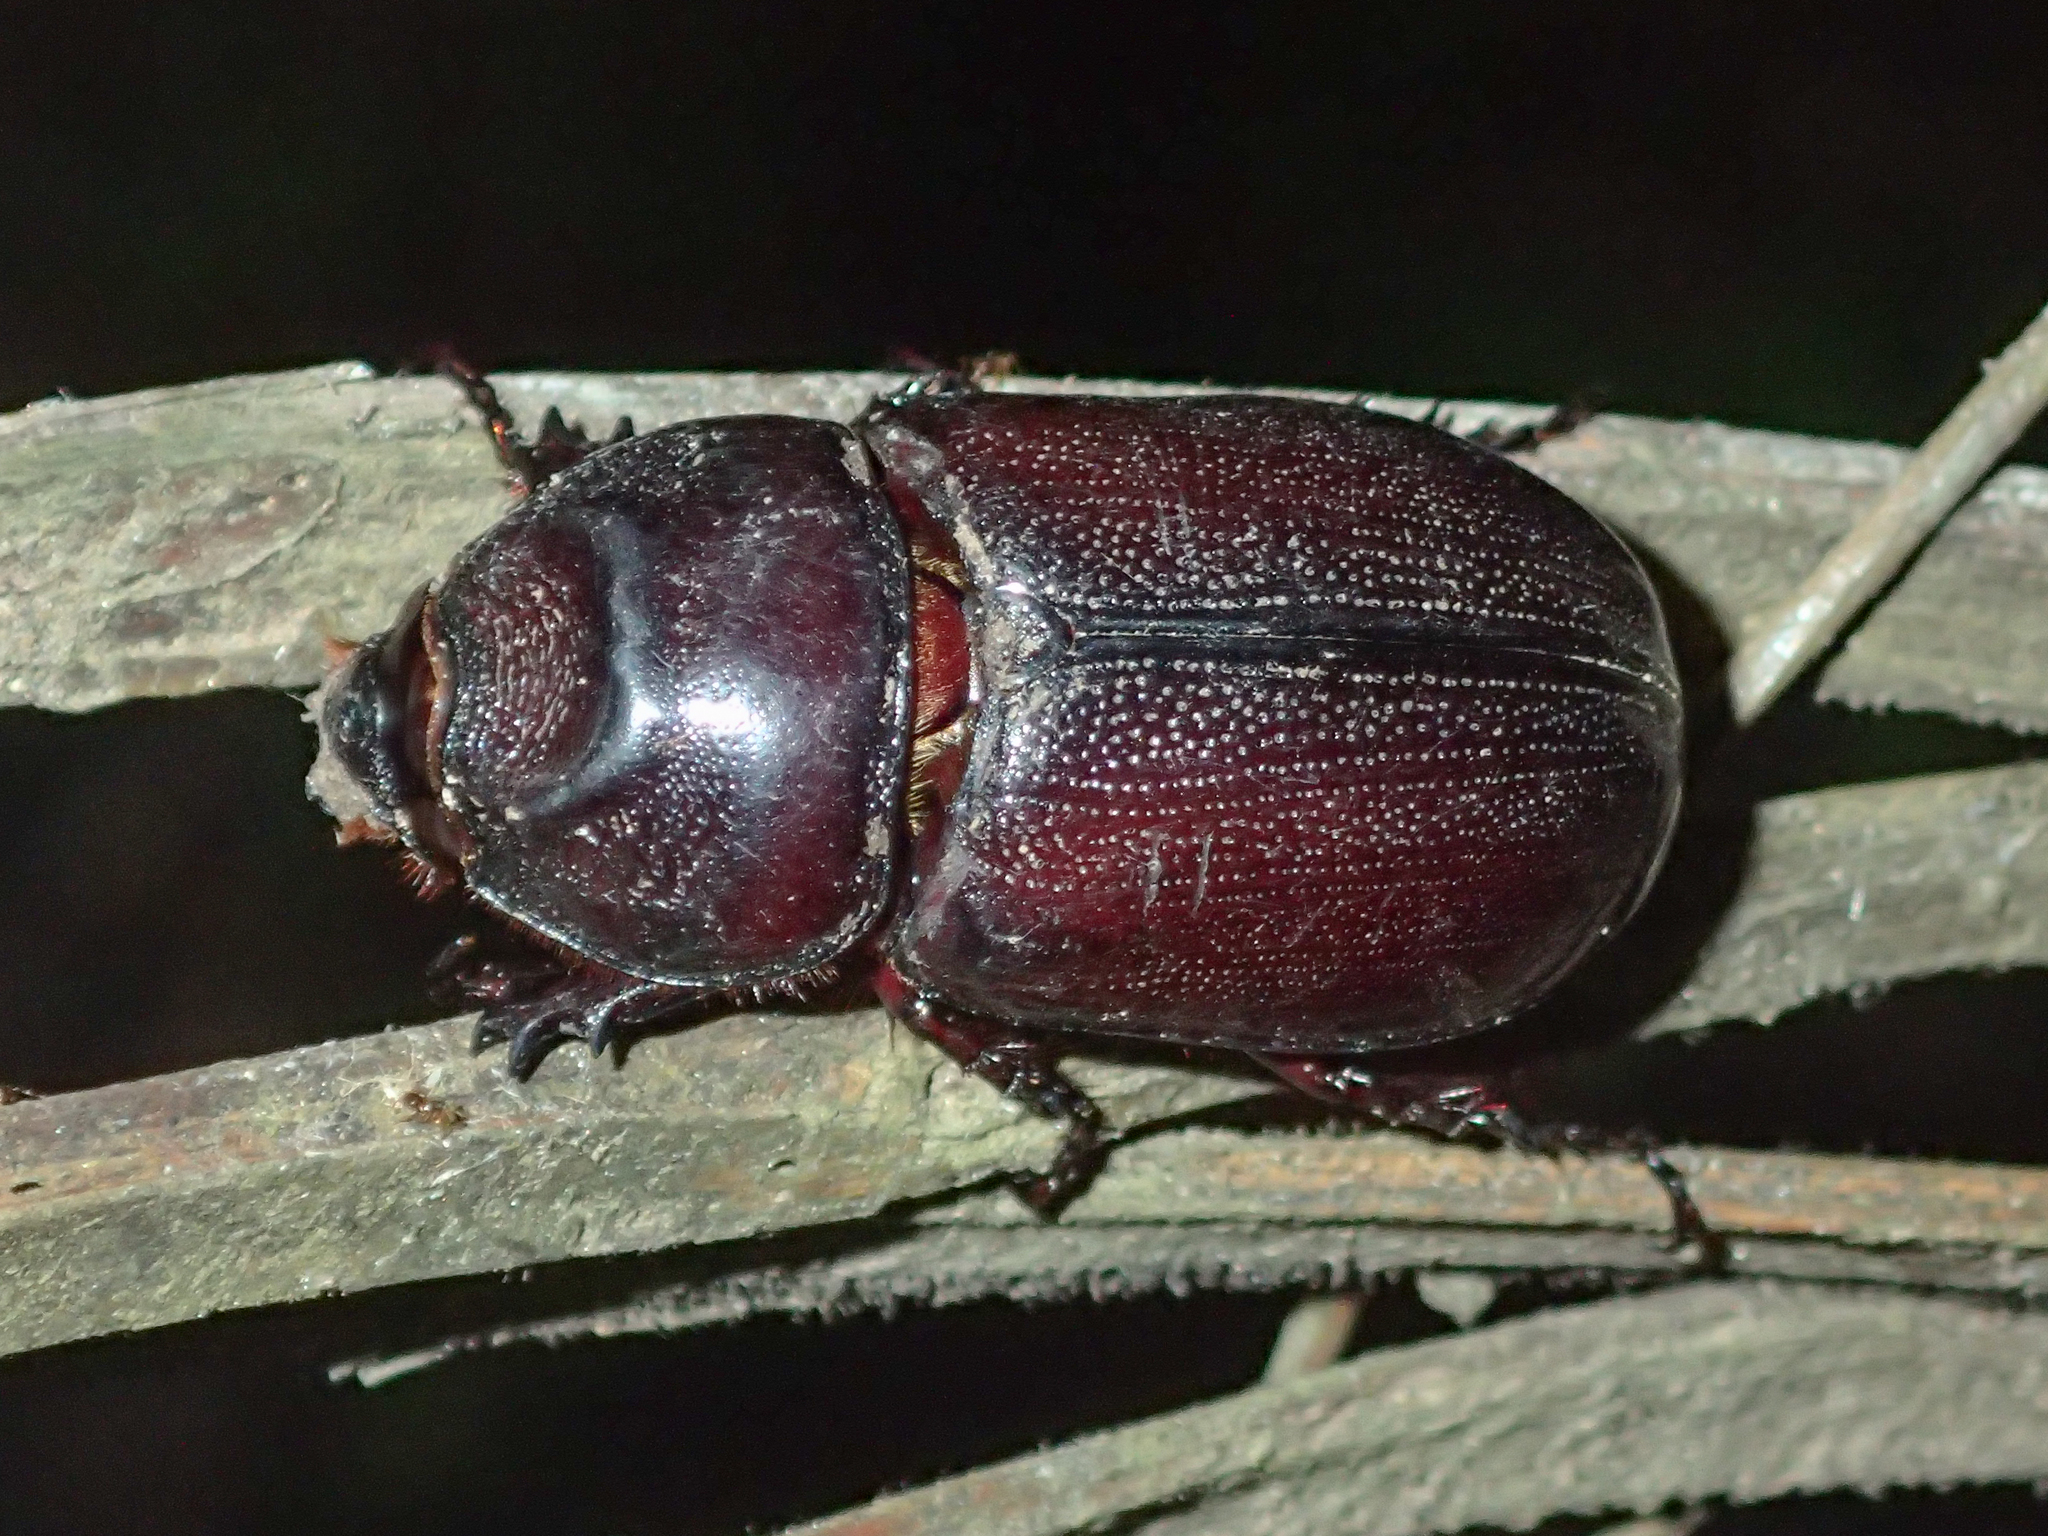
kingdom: Animalia
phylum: Arthropoda
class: Insecta
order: Coleoptera
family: Scarabaeidae
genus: Oryctes
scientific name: Oryctes rhinoceros
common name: Coconut rhinoceros beetle
